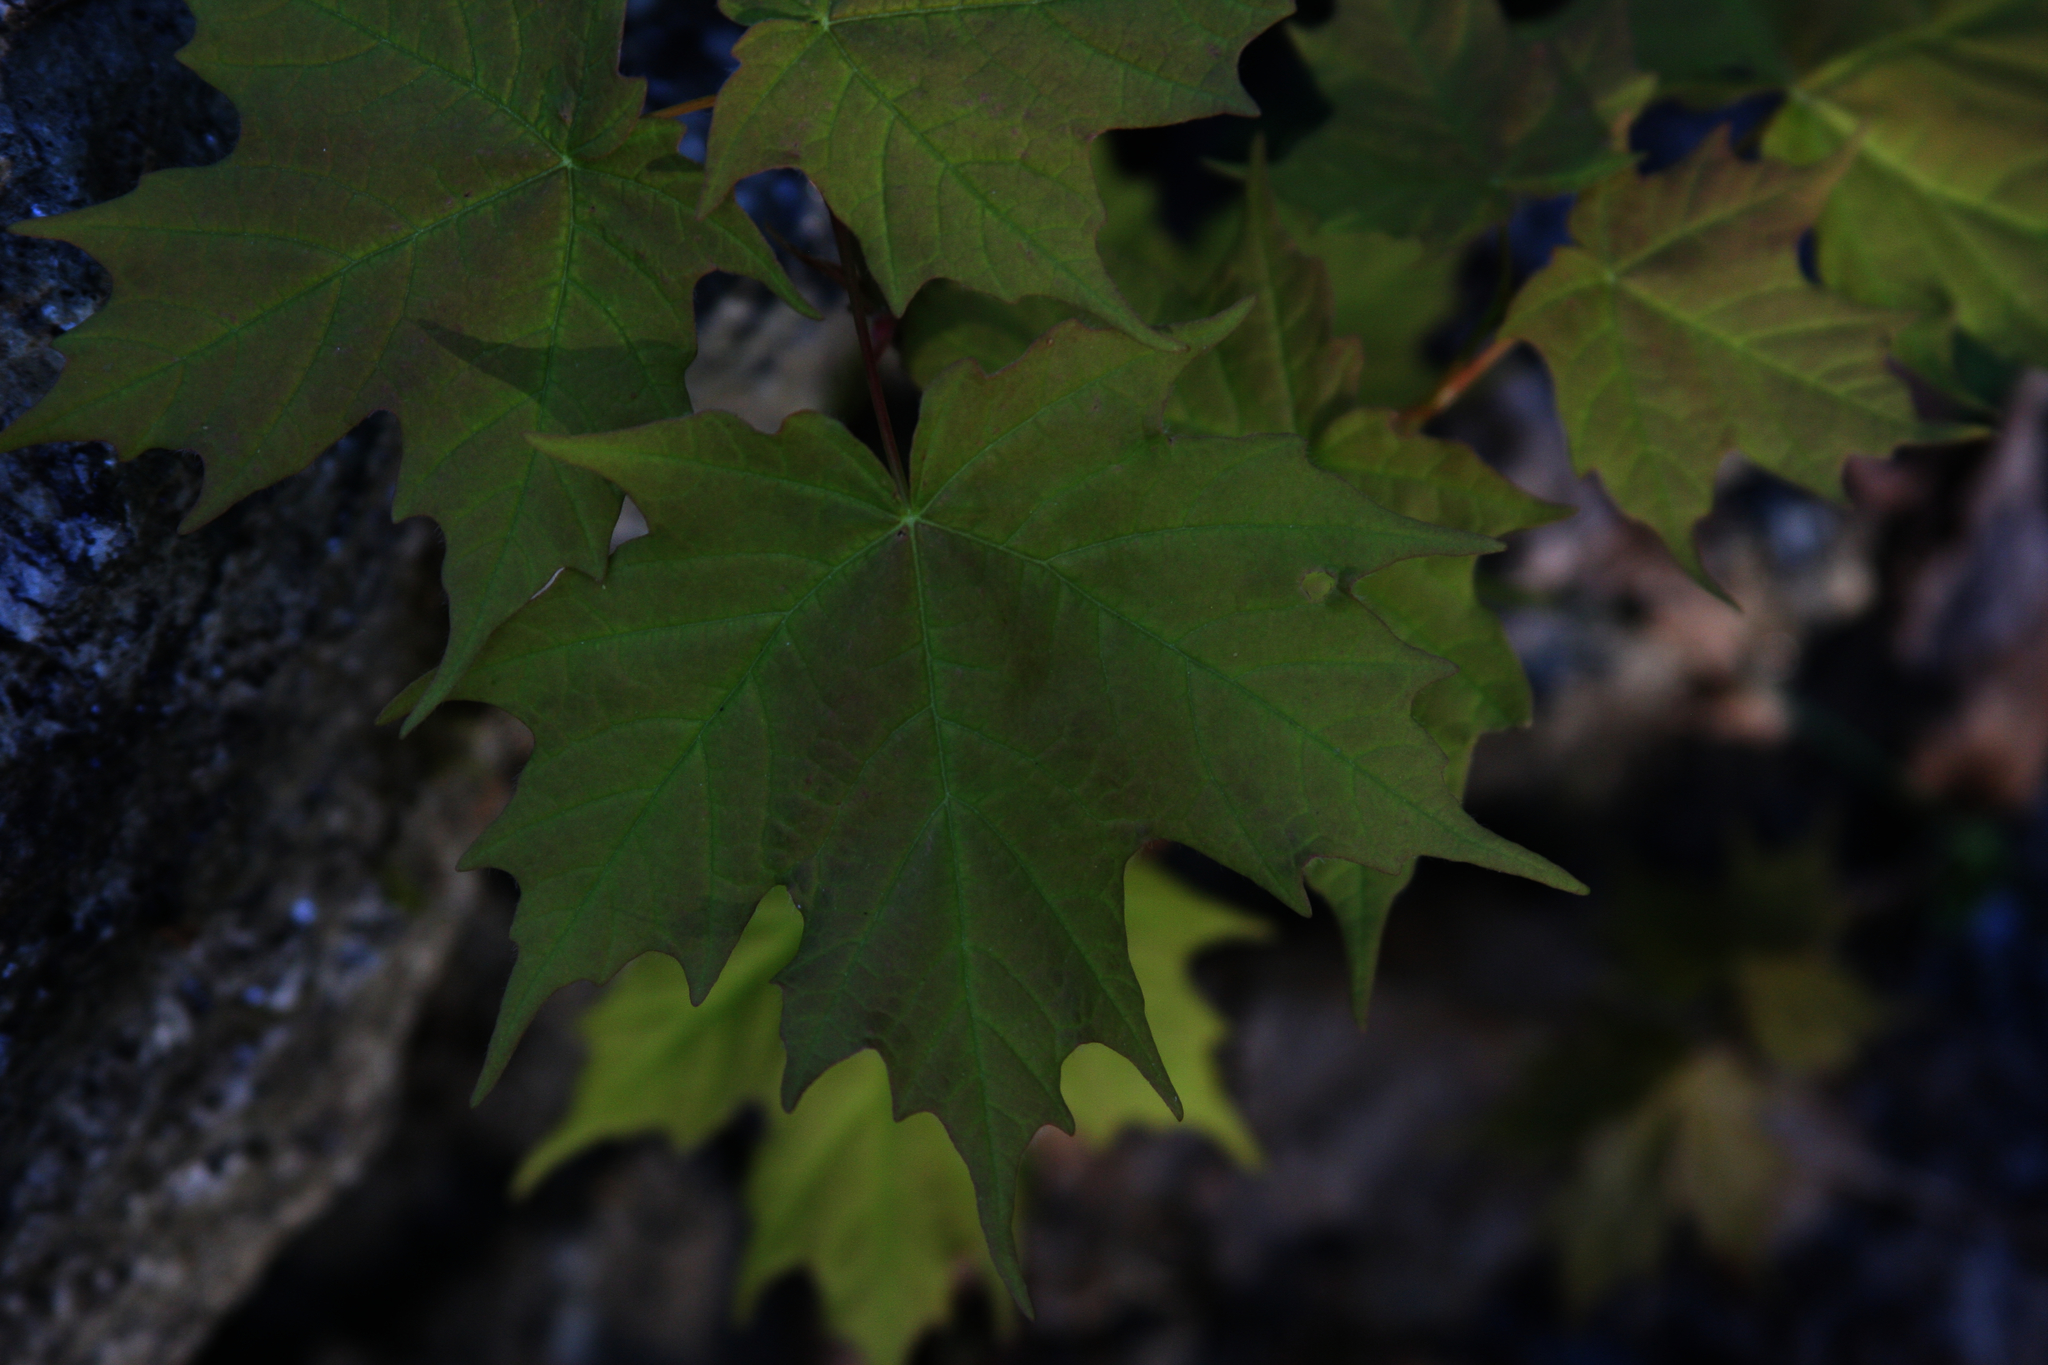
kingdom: Plantae
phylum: Tracheophyta
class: Magnoliopsida
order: Sapindales
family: Sapindaceae
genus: Acer
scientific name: Acer saccharum
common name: Sugar maple
